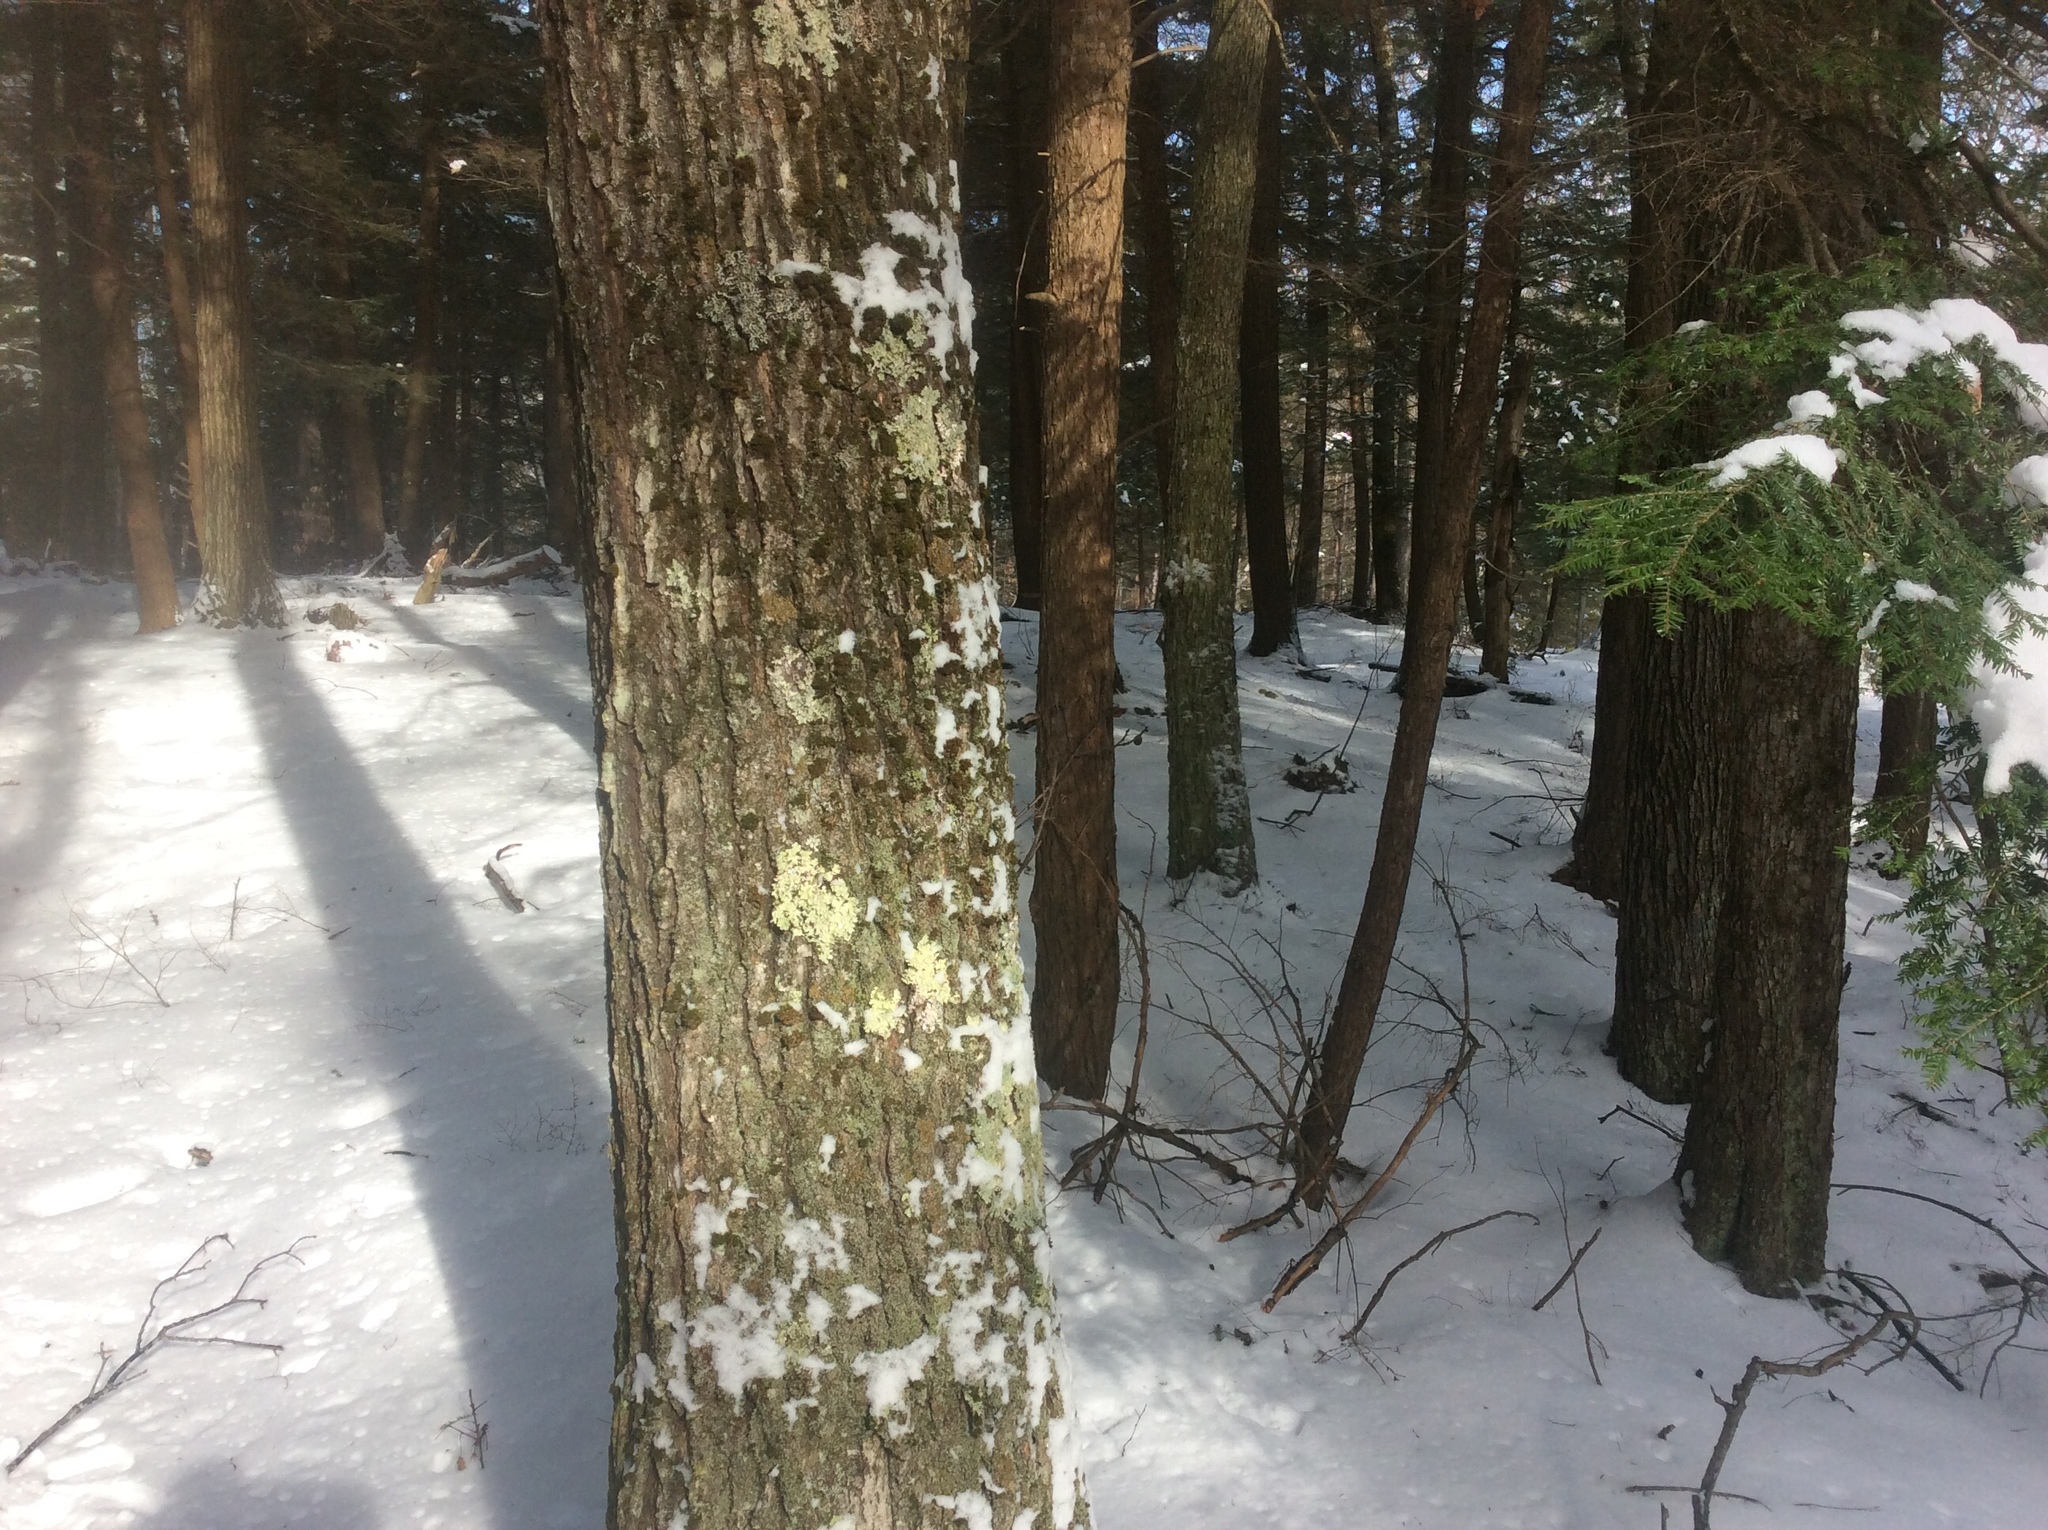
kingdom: Plantae
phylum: Tracheophyta
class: Magnoliopsida
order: Fagales
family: Fagaceae
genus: Quercus
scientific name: Quercus rubra
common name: Red oak
